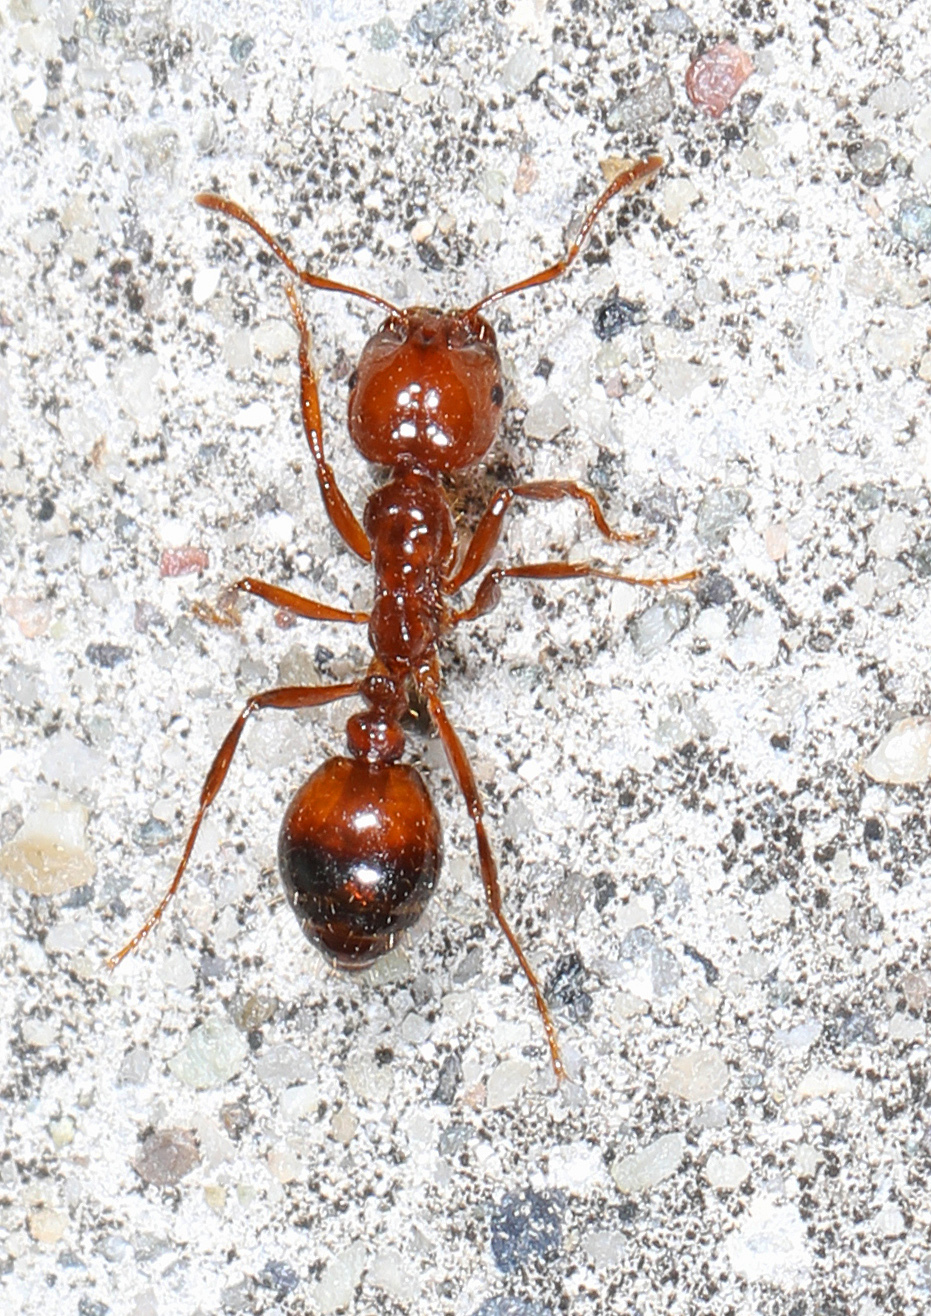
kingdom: Animalia
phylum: Arthropoda
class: Insecta
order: Hymenoptera
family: Formicidae
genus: Solenopsis
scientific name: Solenopsis invicta
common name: Red imported fire ant
